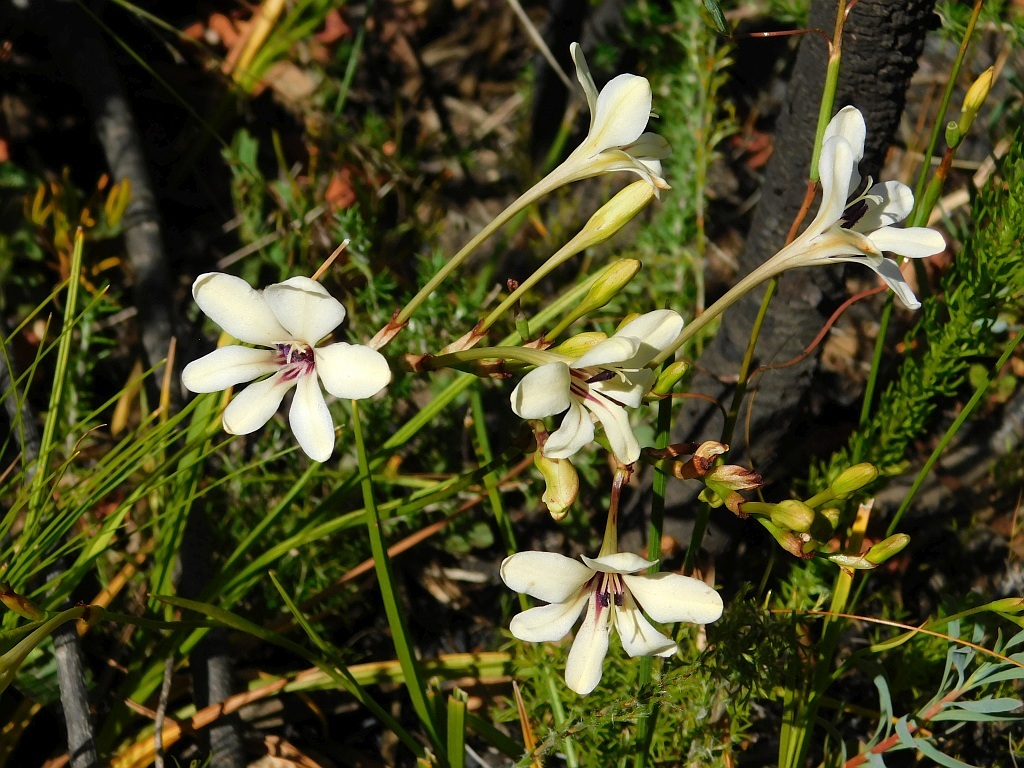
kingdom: Plantae
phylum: Tracheophyta
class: Liliopsida
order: Asparagales
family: Iridaceae
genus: Tritonia
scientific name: Tritonia cooperi
